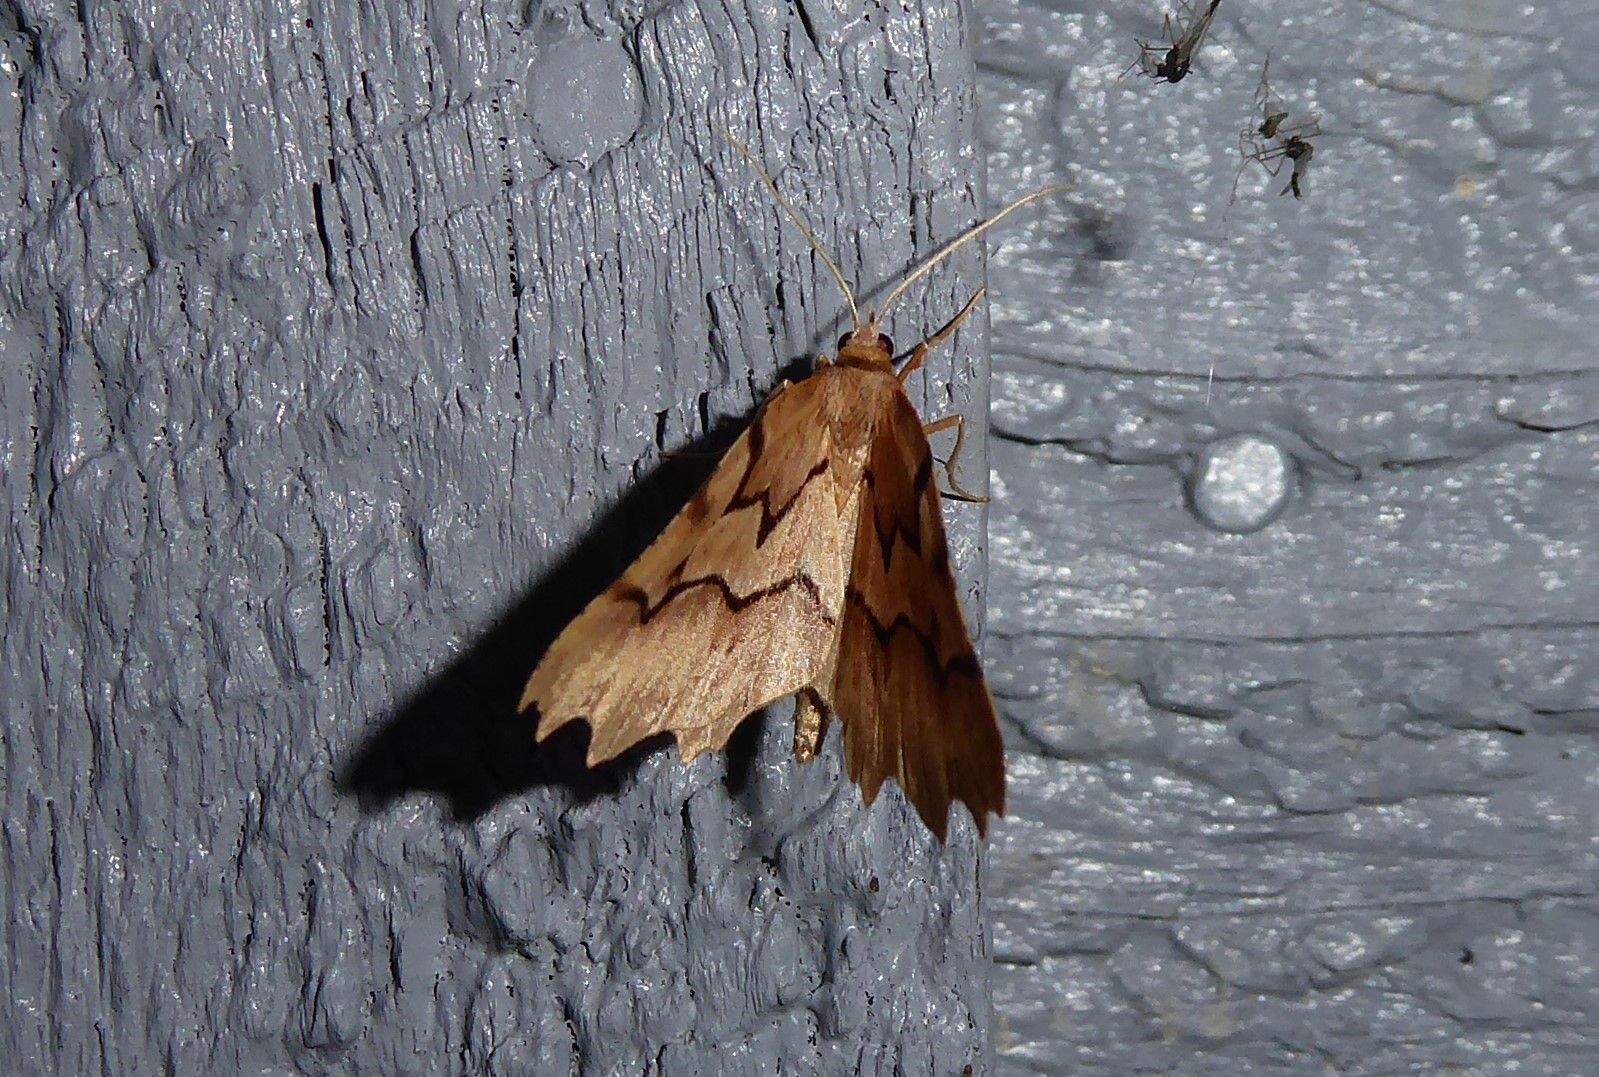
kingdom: Animalia
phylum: Arthropoda
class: Insecta
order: Lepidoptera
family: Geometridae
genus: Ischalis
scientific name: Ischalis fortinata
